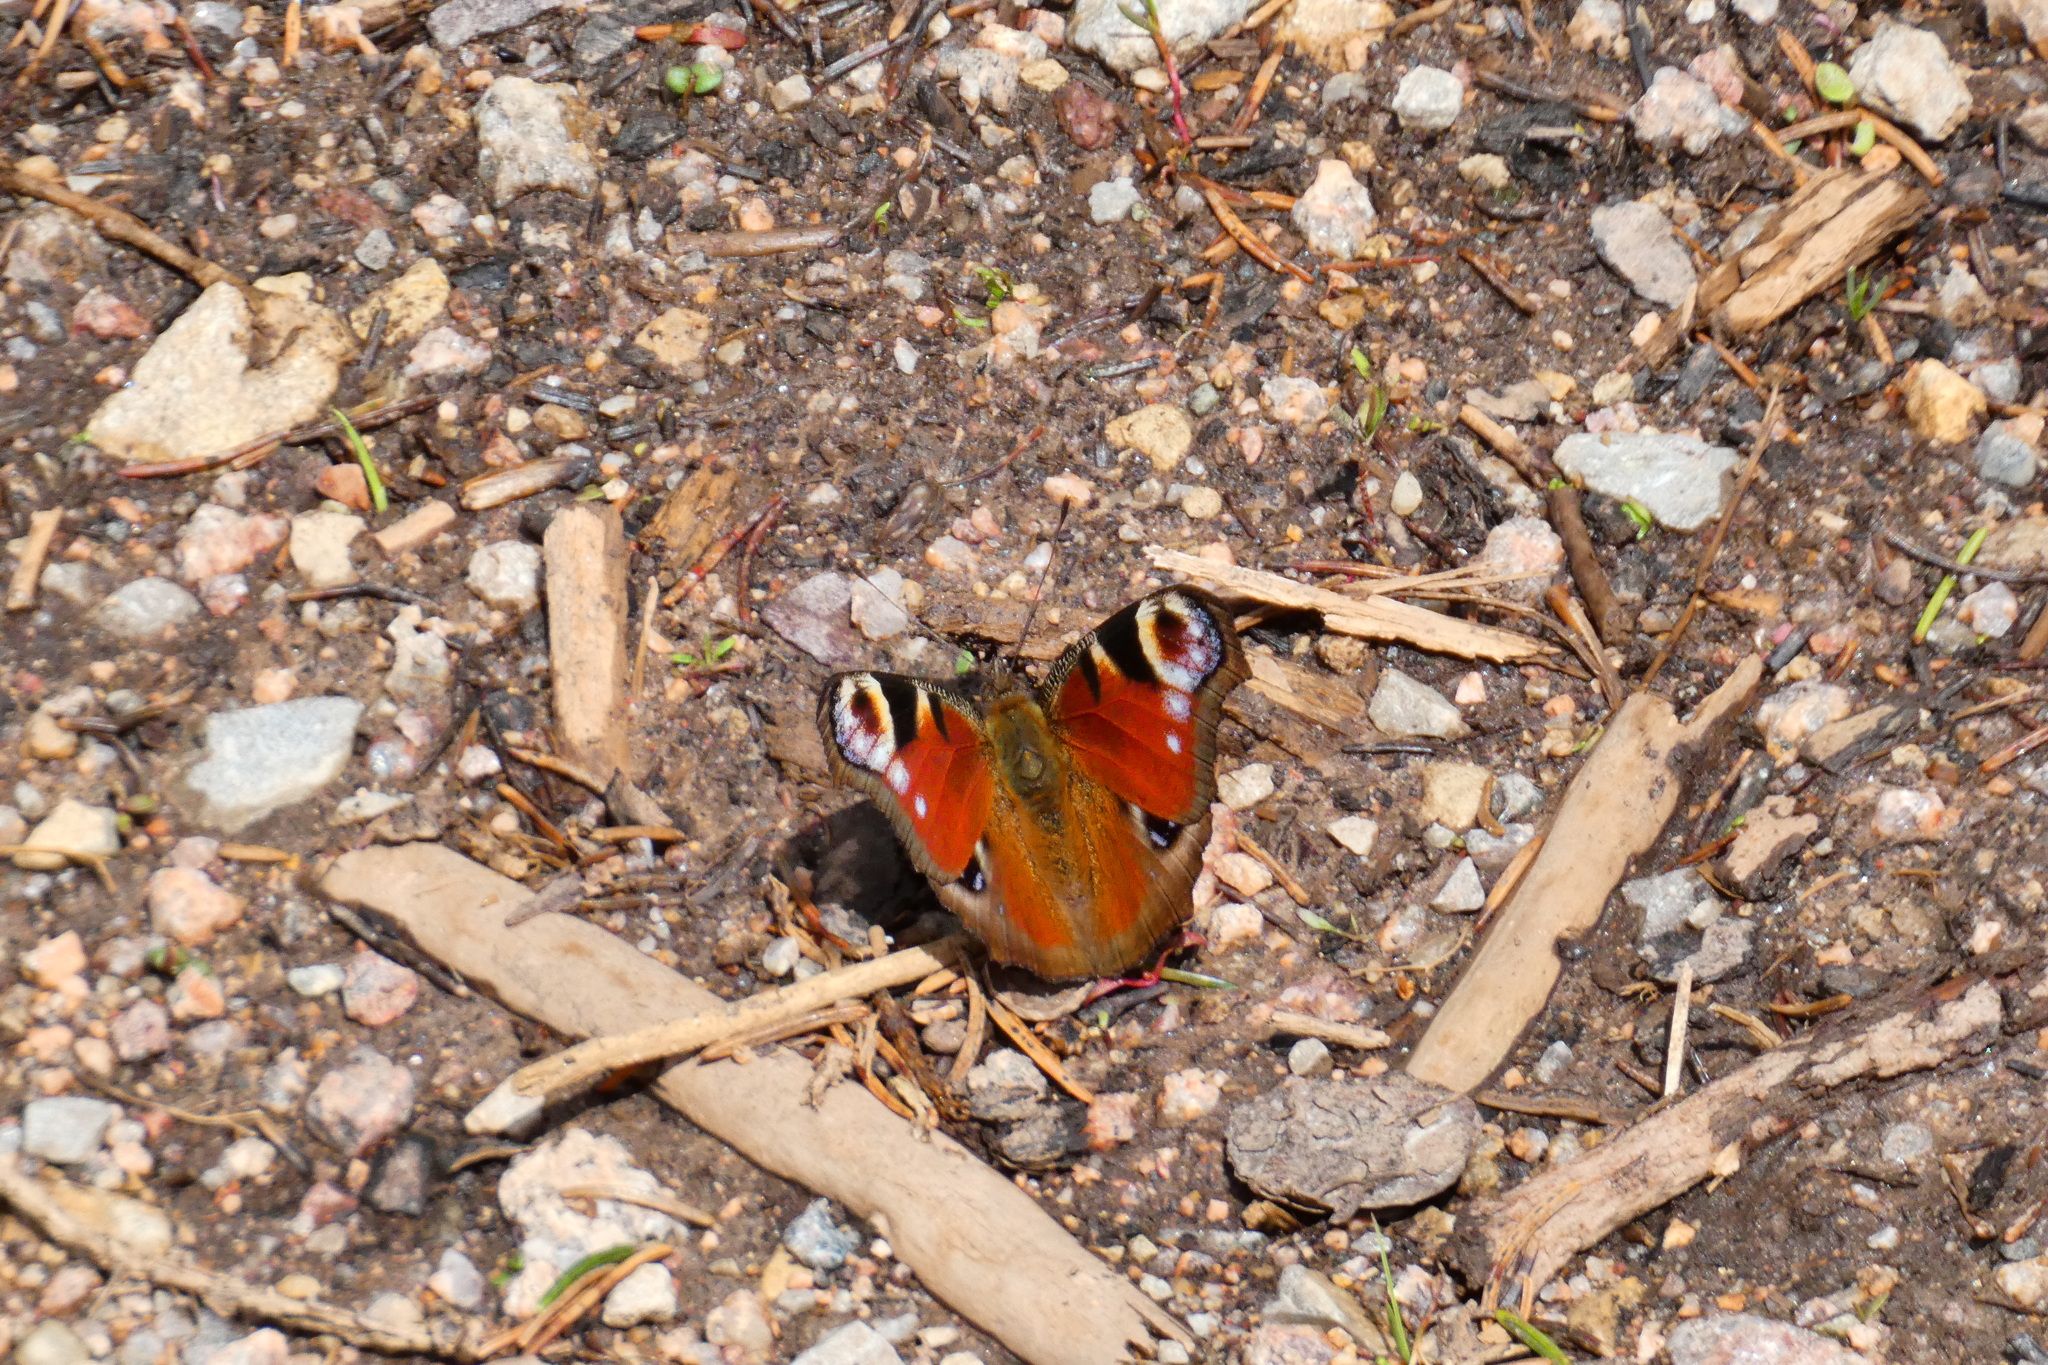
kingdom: Animalia
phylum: Arthropoda
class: Insecta
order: Lepidoptera
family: Nymphalidae
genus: Aglais
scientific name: Aglais io
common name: Peacock
